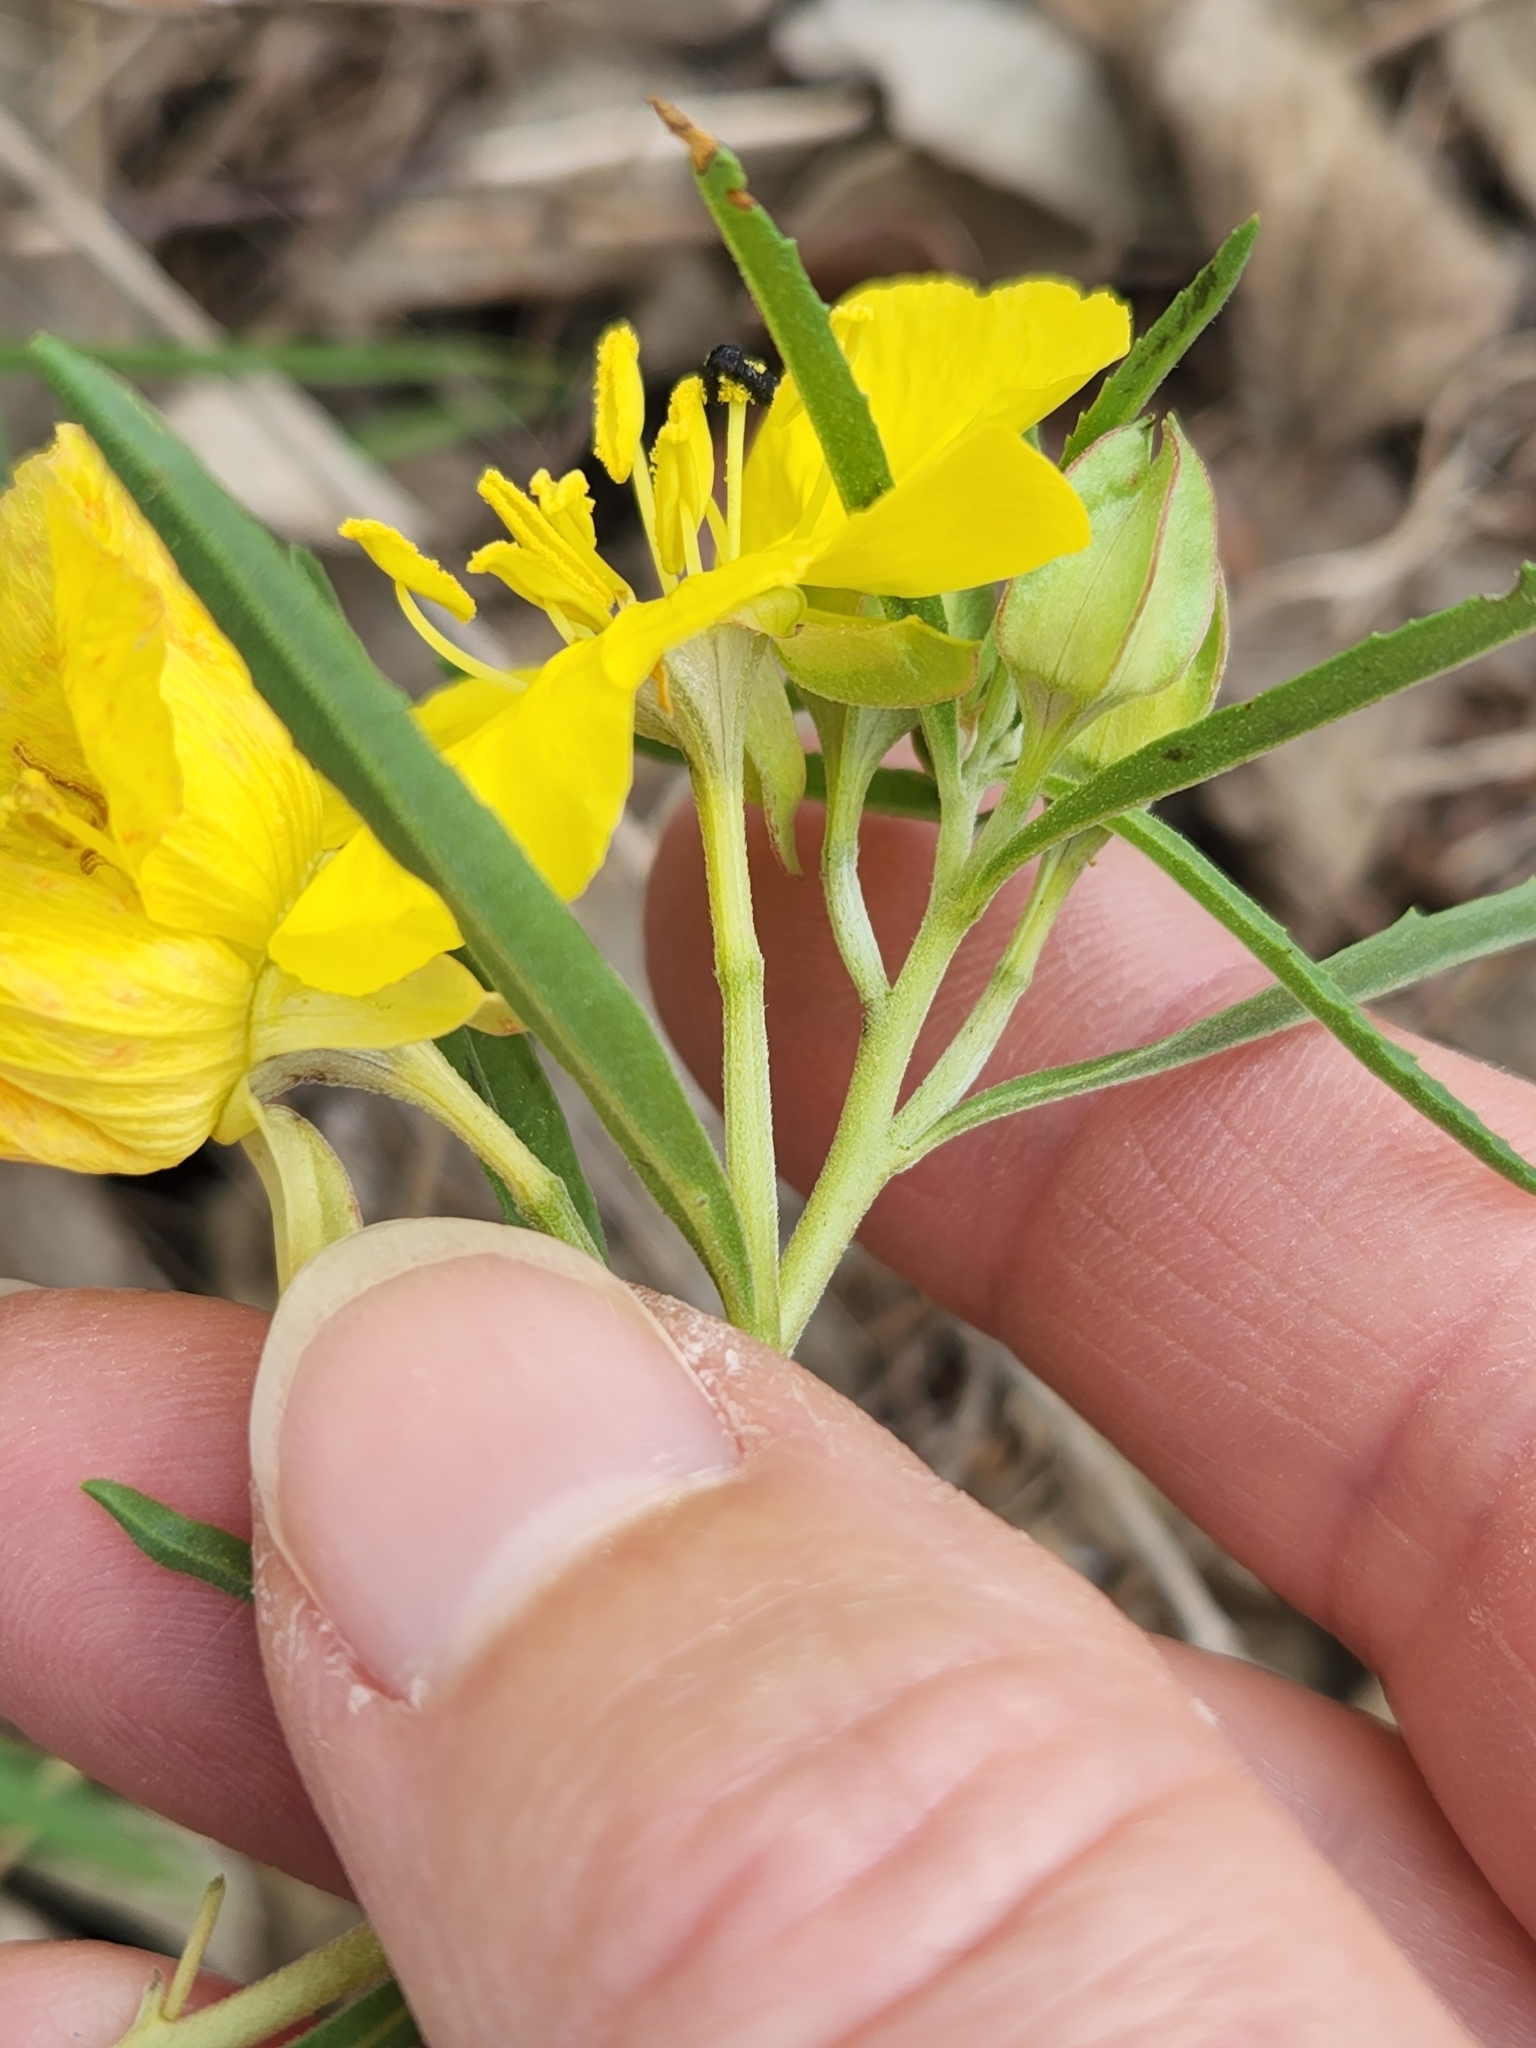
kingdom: Plantae
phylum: Tracheophyta
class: Magnoliopsida
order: Myrtales
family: Onagraceae
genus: Oenothera
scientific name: Oenothera
